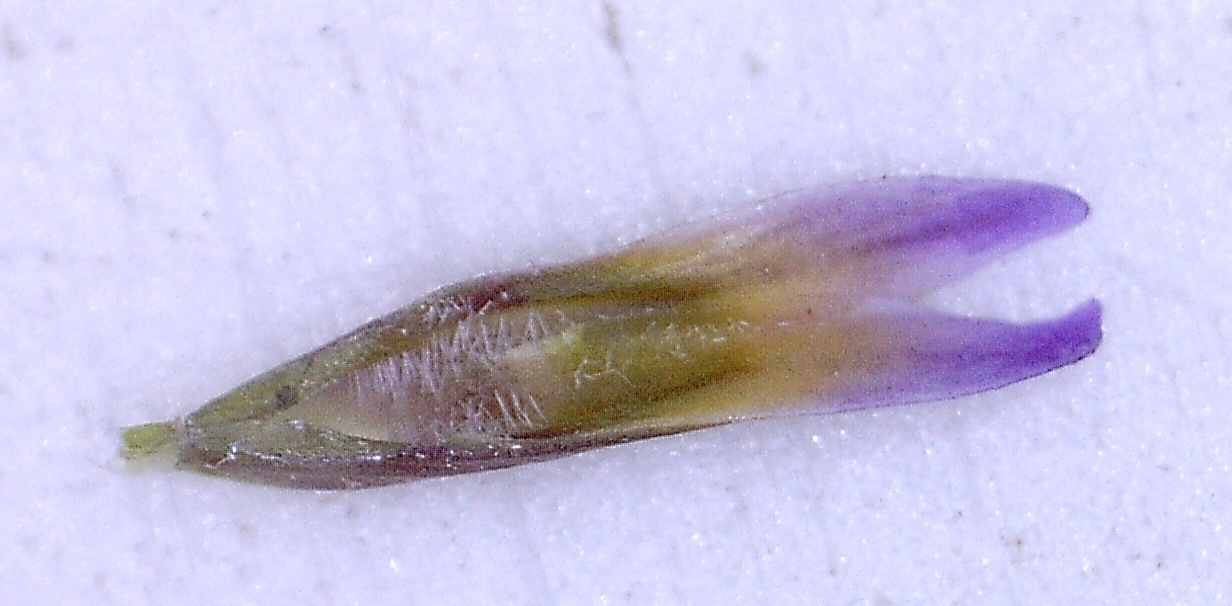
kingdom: Plantae
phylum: Tracheophyta
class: Magnoliopsida
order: Fabales
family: Polygalaceae
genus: Muraltia
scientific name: Muraltia alopecuroides
